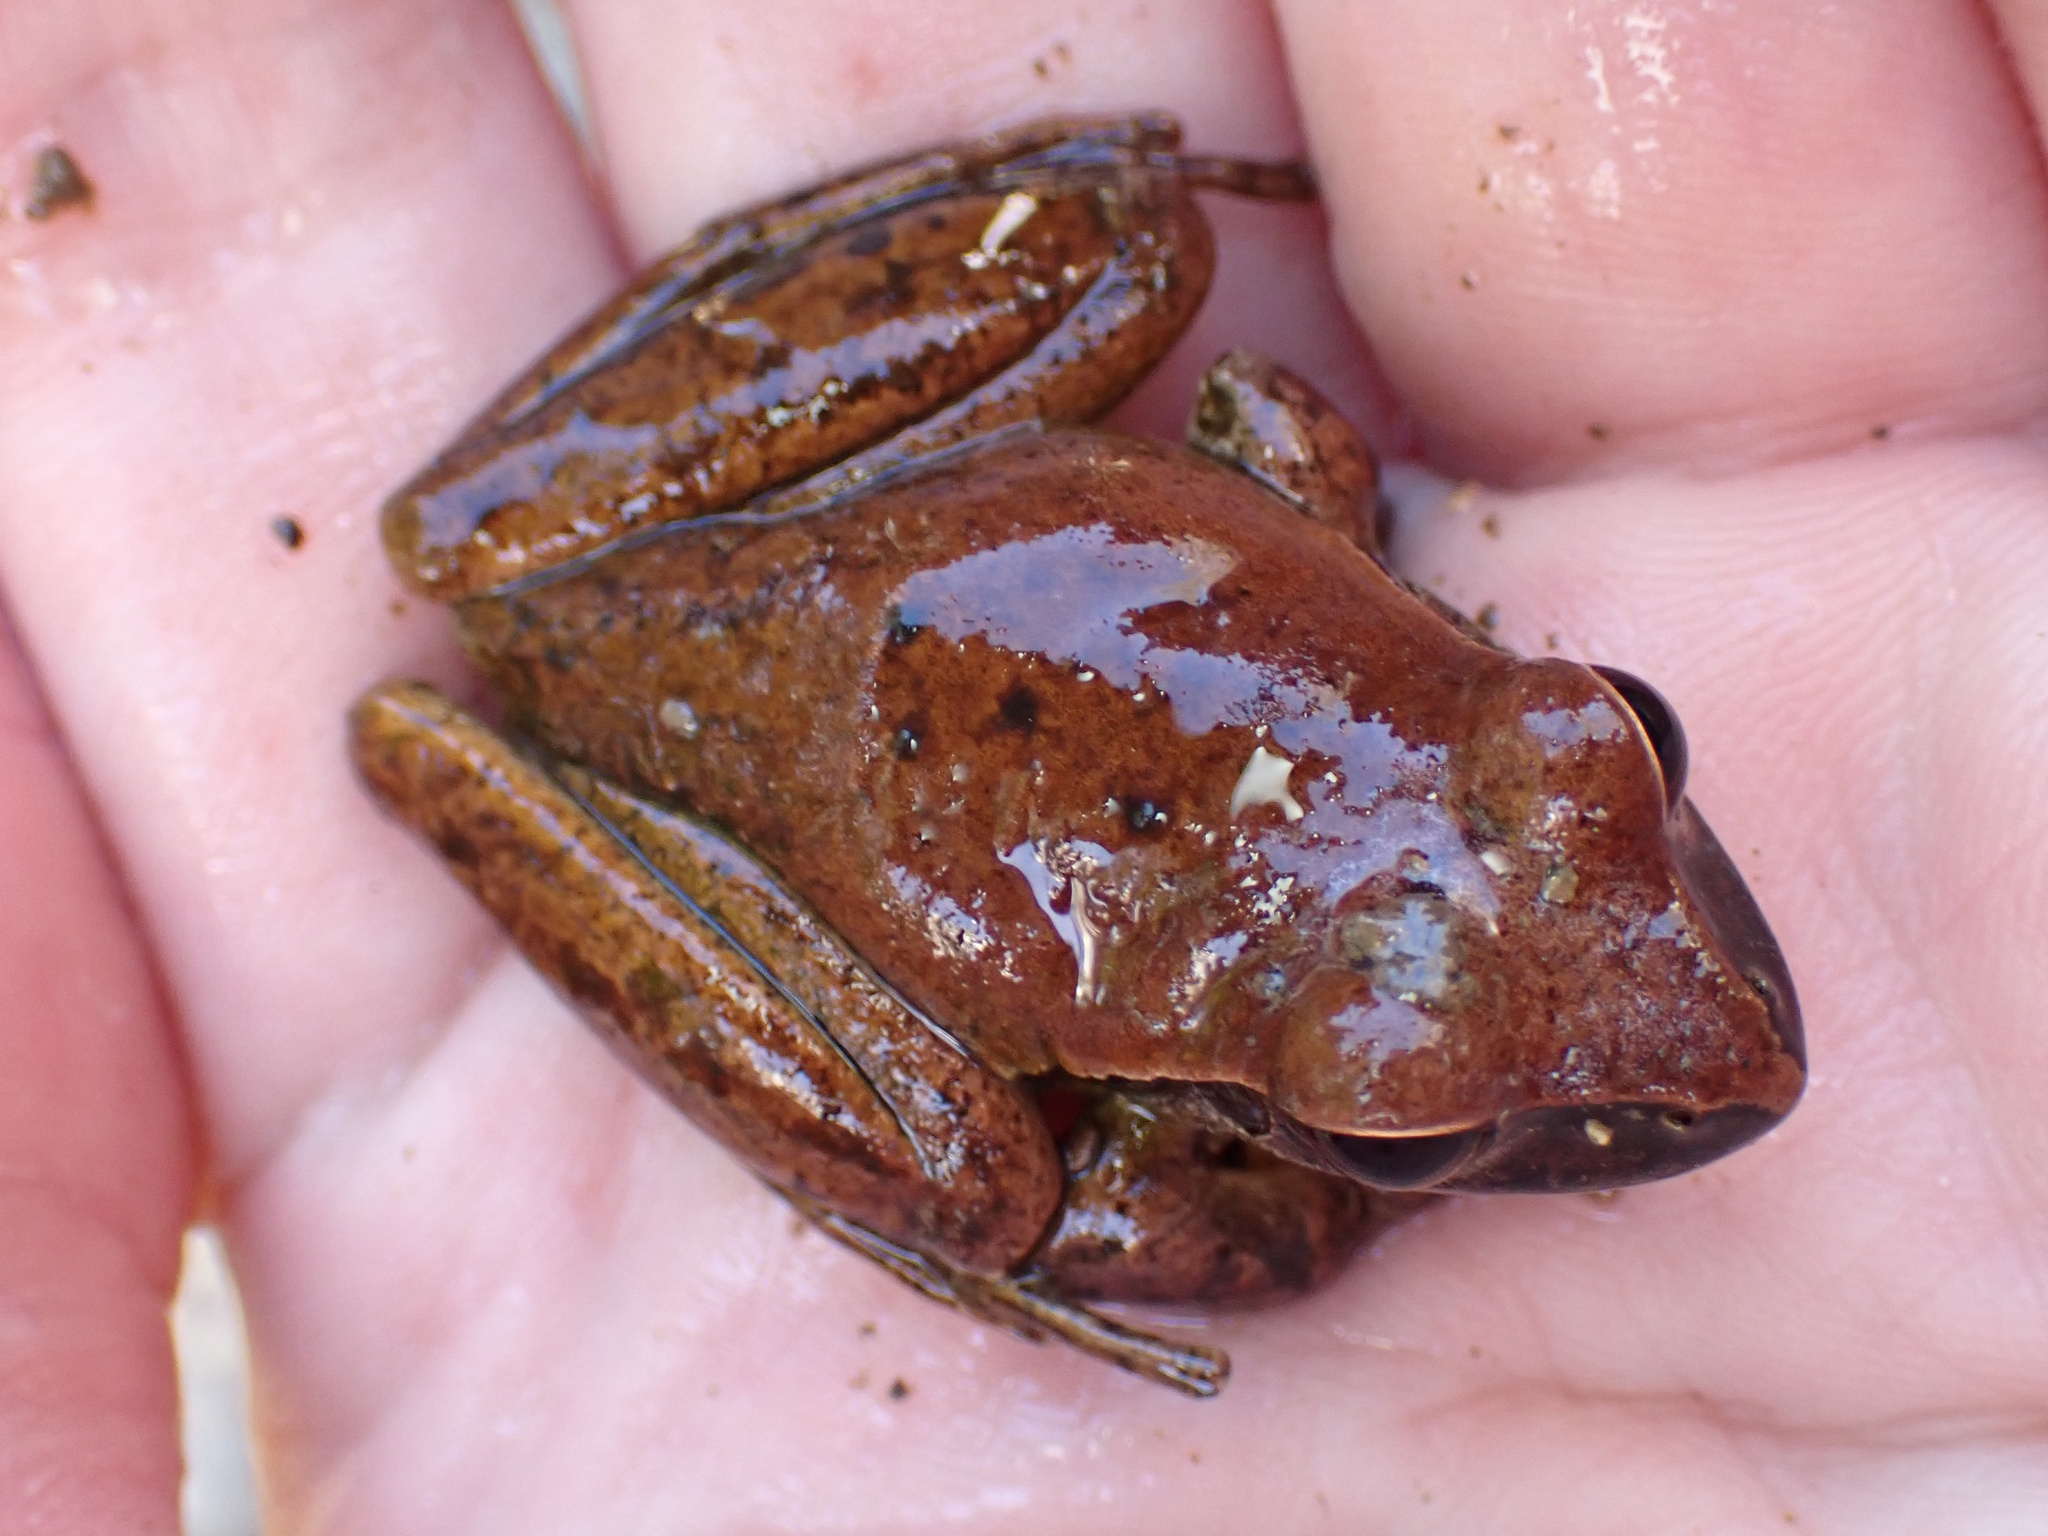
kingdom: Animalia
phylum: Chordata
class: Amphibia
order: Anura
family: Pelodryadidae
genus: Ranoidea
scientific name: Ranoidea wilcoxii
